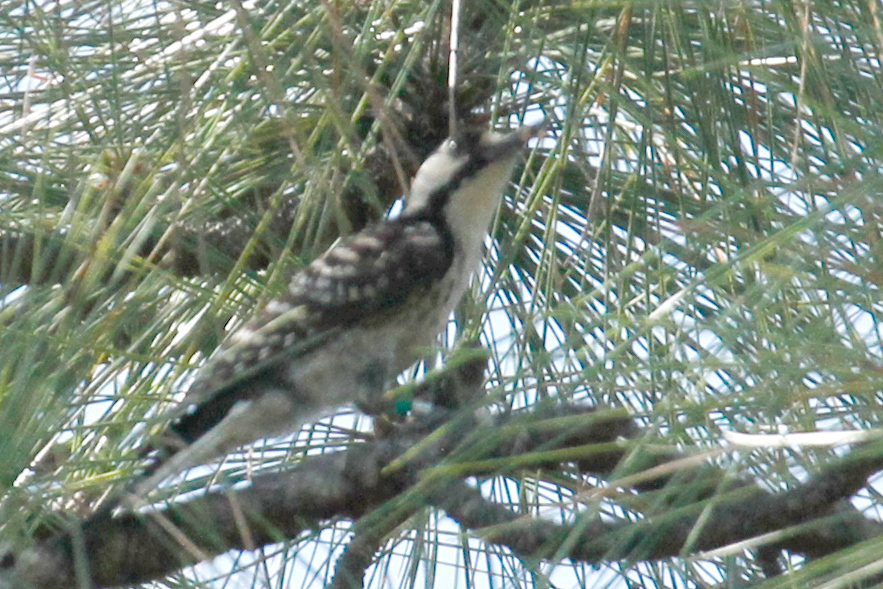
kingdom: Animalia
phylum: Chordata
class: Aves
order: Piciformes
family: Picidae
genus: Leuconotopicus
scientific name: Leuconotopicus borealis
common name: Red-cockaded woodpecker
